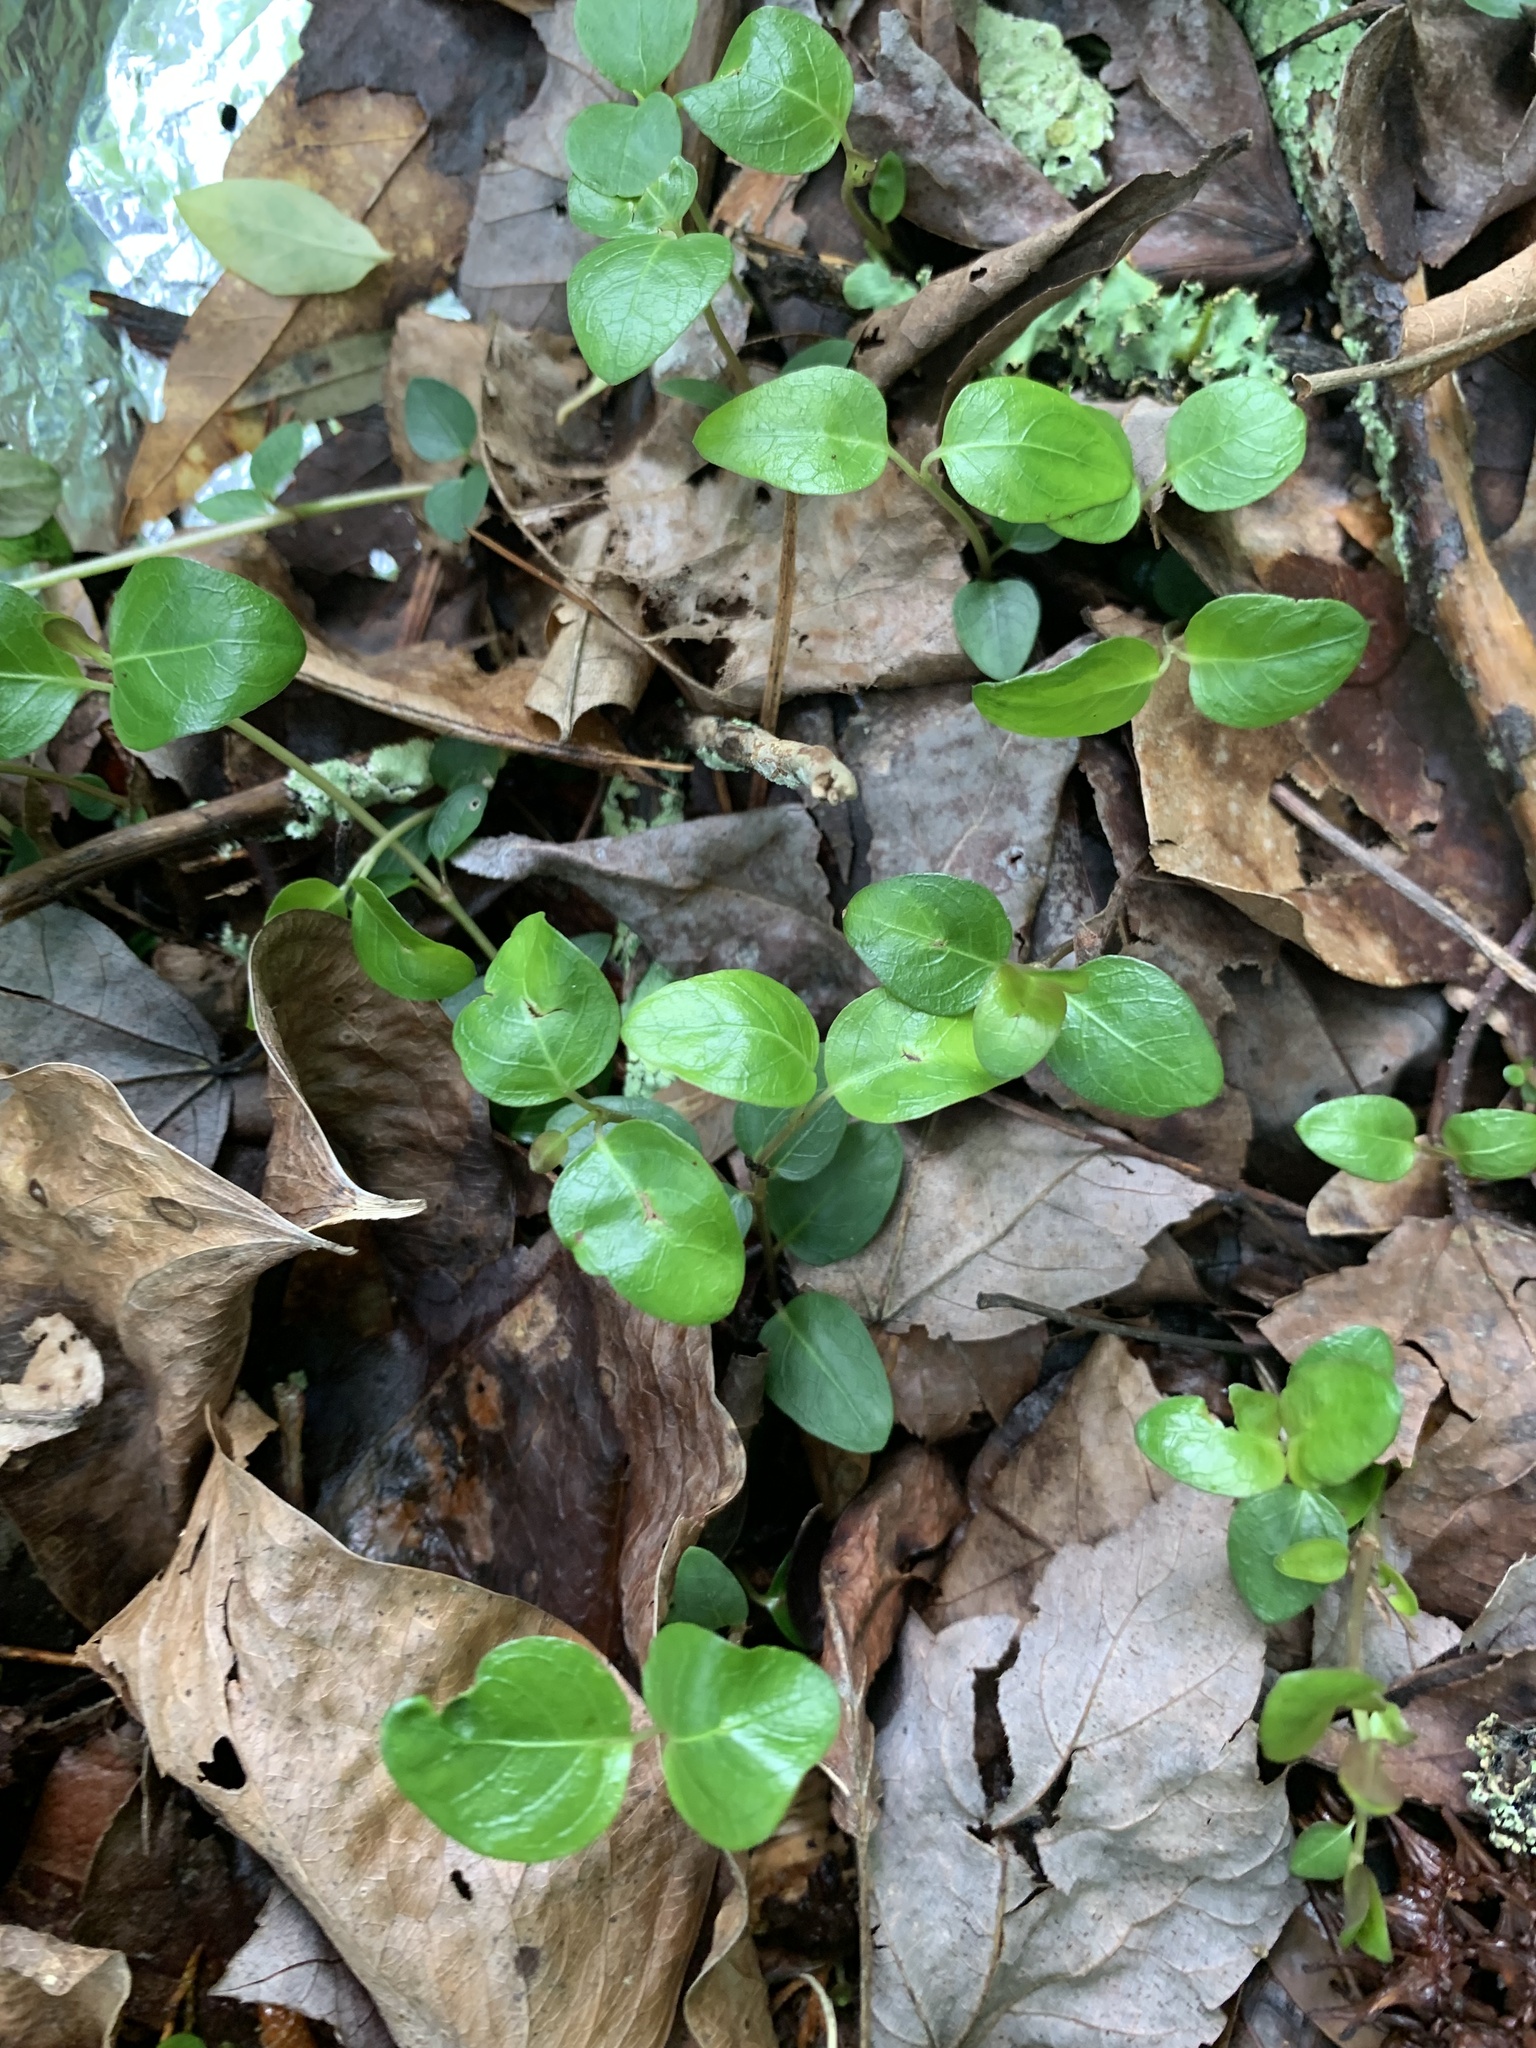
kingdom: Plantae
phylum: Tracheophyta
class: Magnoliopsida
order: Gentianales
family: Rubiaceae
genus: Mitchella
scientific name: Mitchella repens
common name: Partridge-berry
